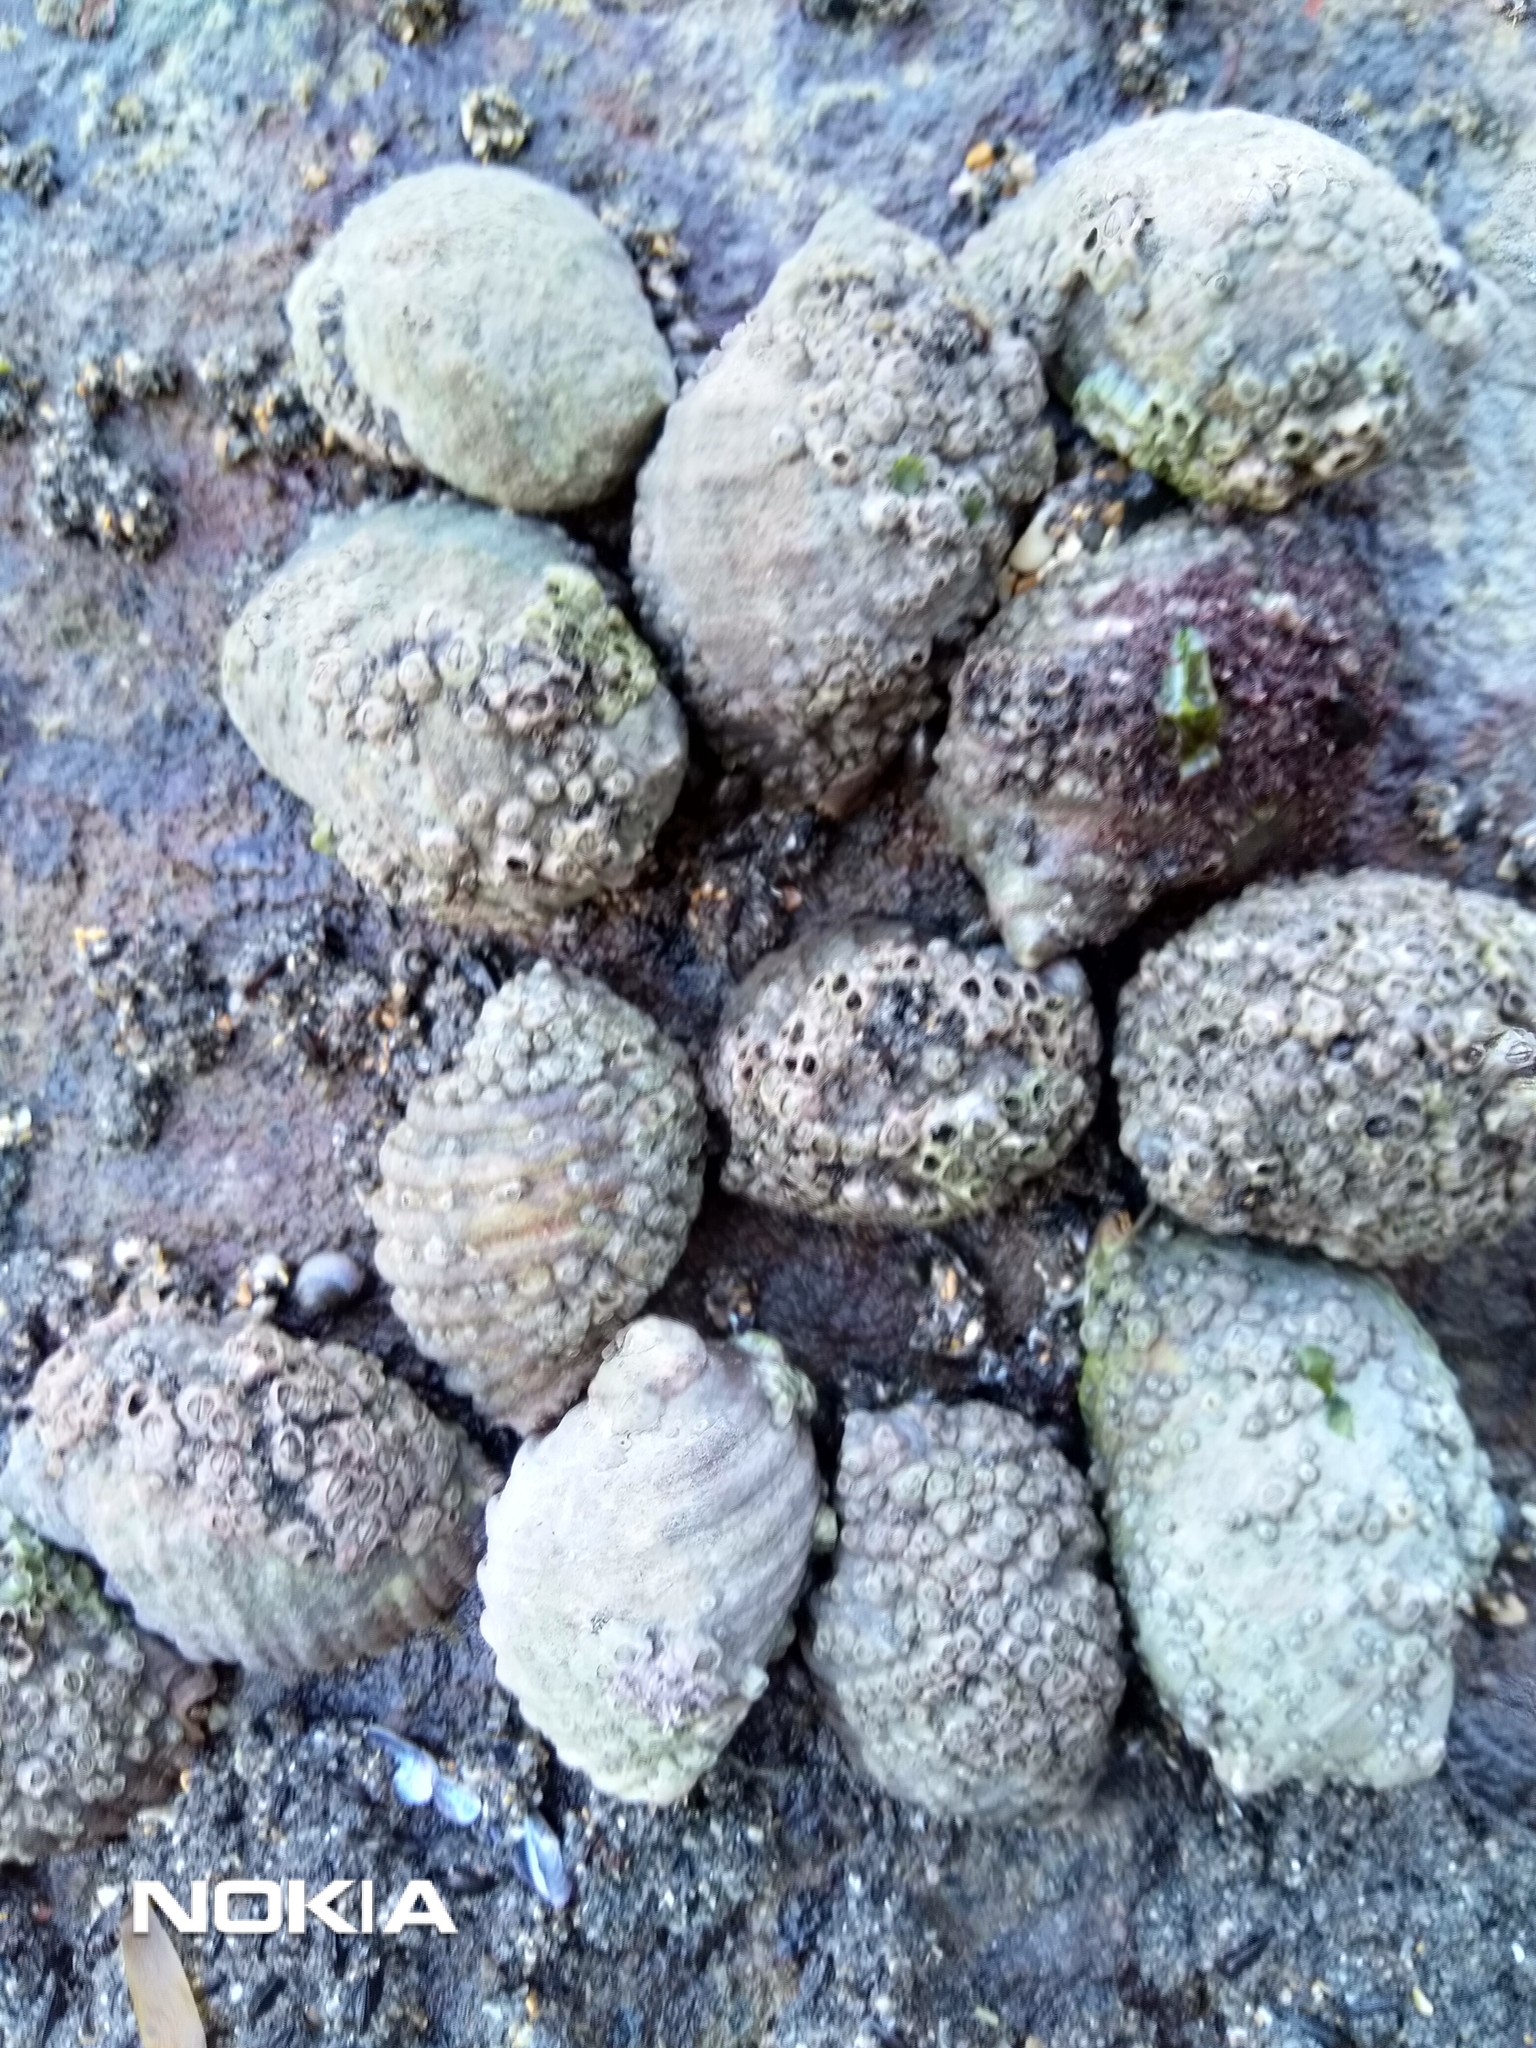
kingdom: Animalia
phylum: Mollusca
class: Gastropoda
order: Neogastropoda
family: Muricidae
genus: Dicathais
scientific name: Dicathais orbita
